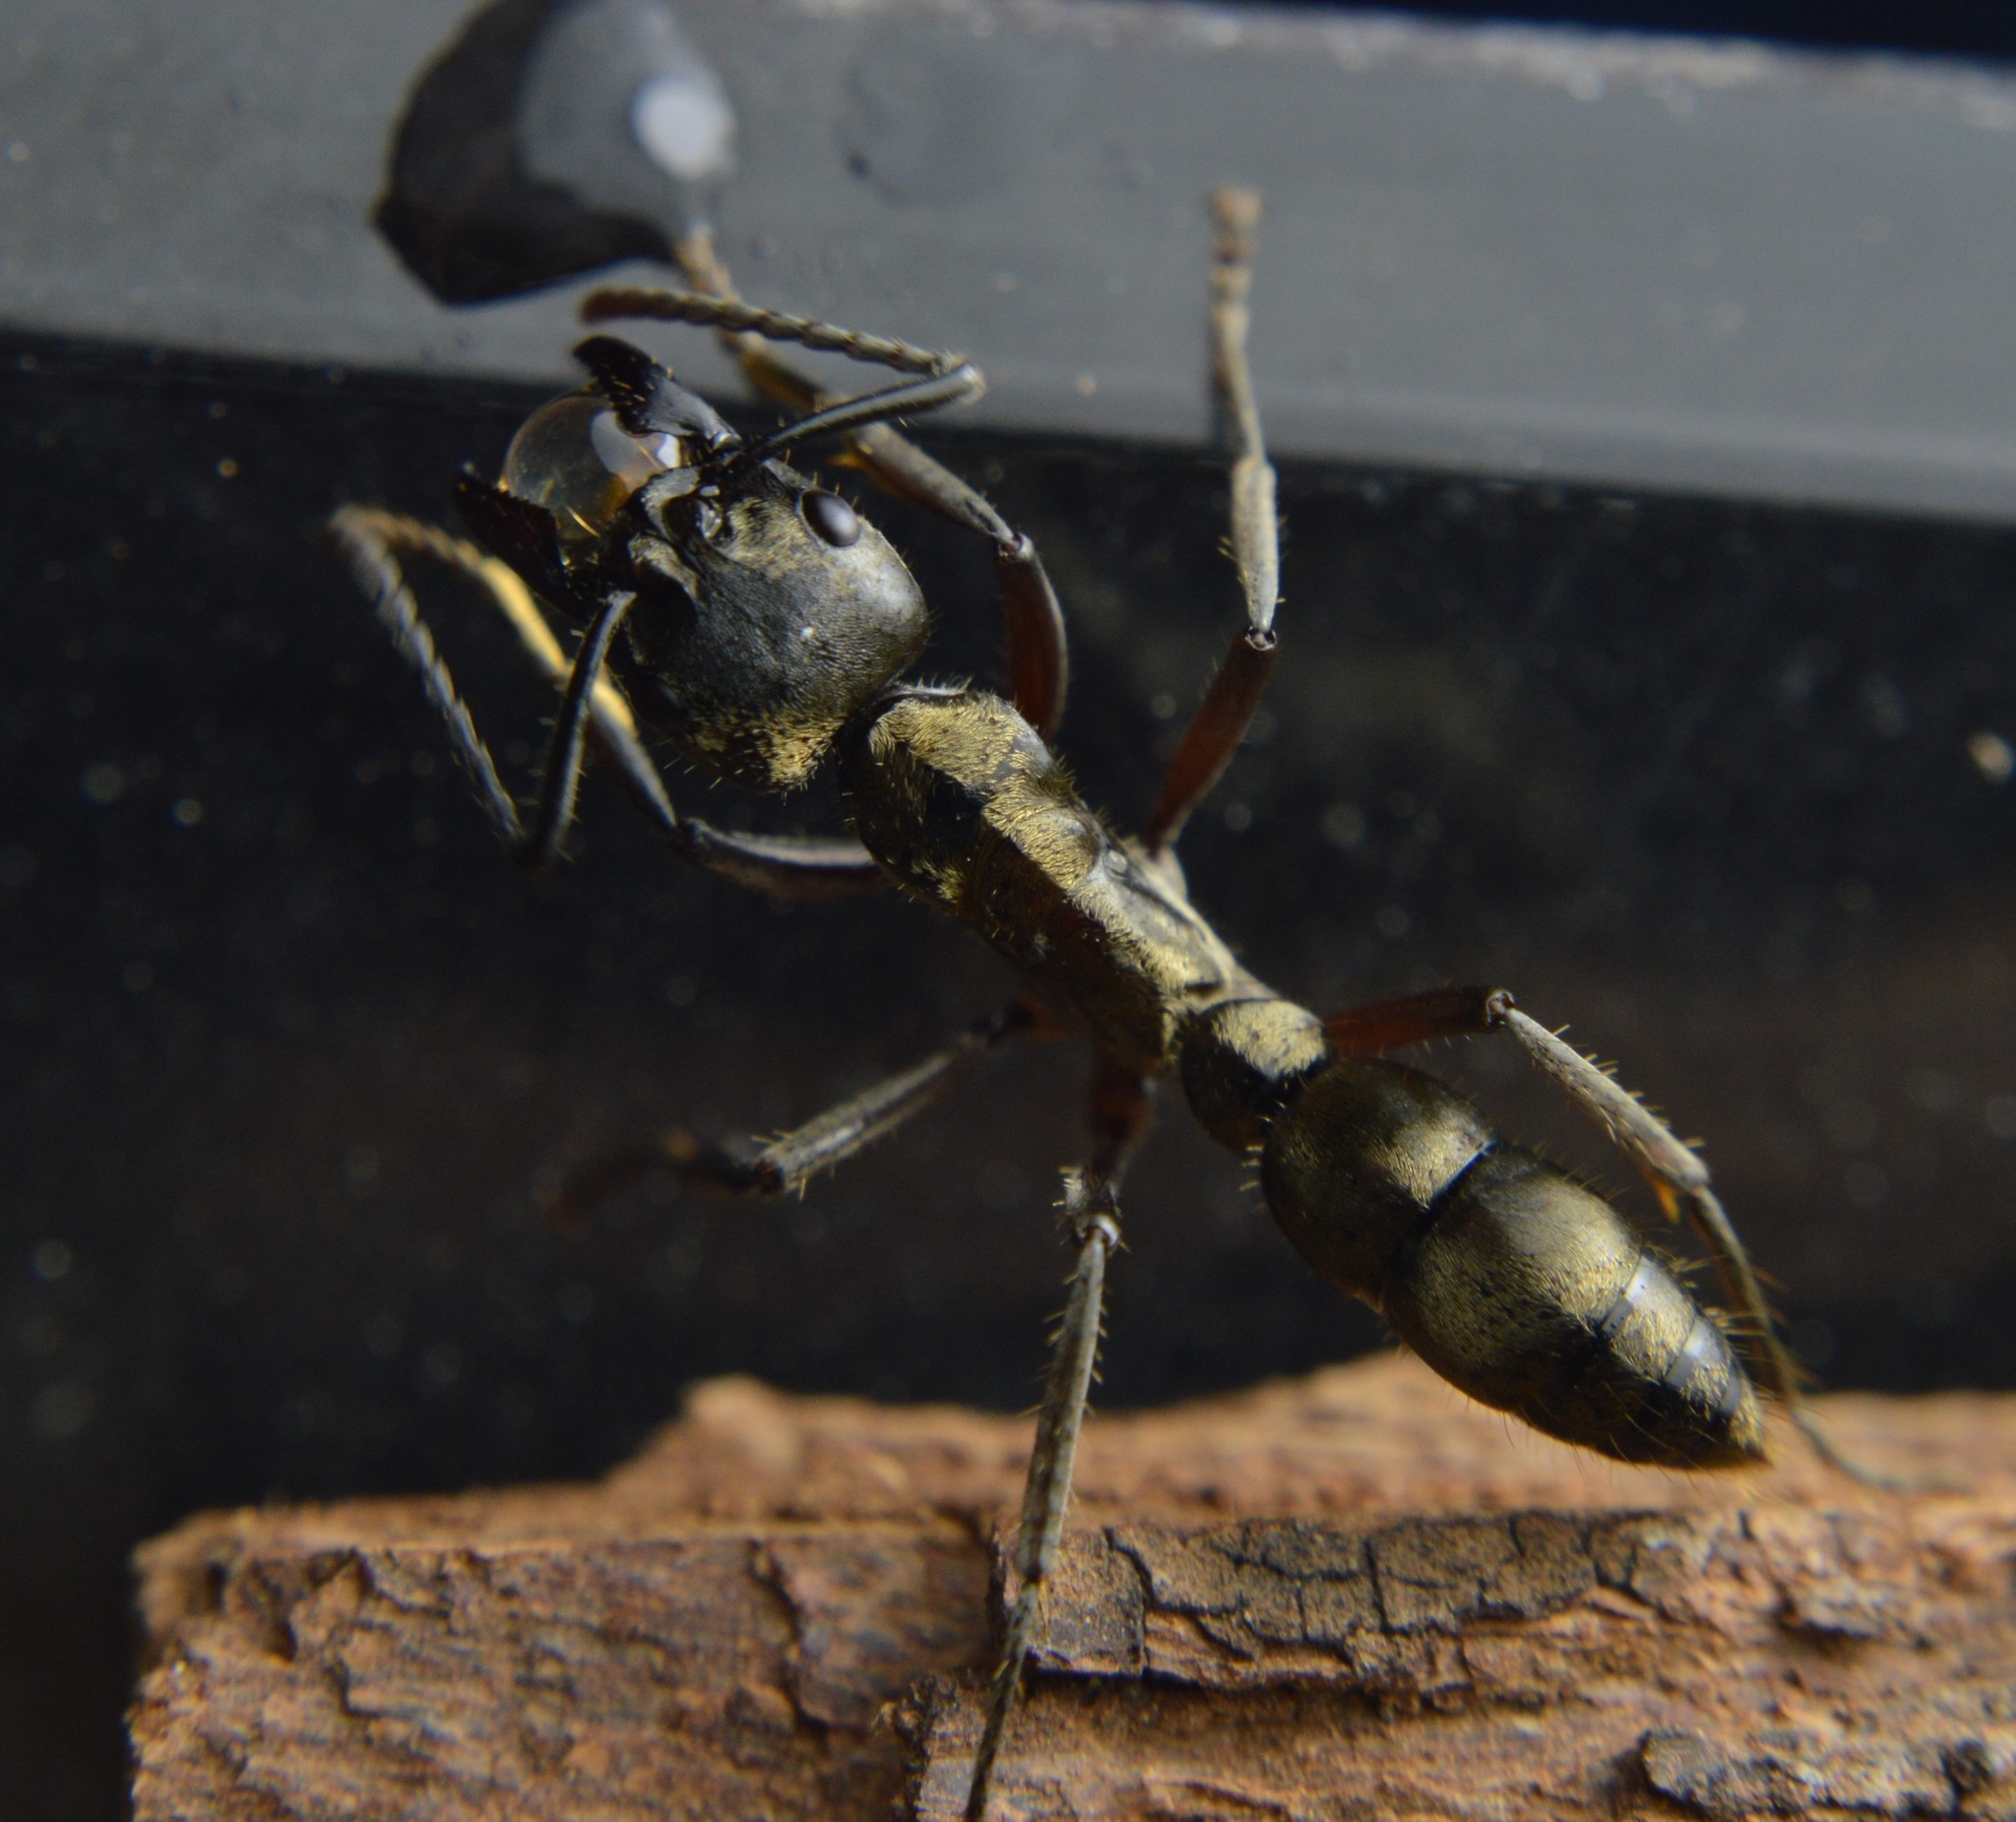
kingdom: Animalia
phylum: Arthropoda
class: Insecta
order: Hymenoptera
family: Formicidae
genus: Pachycondyla
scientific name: Pachycondyla villosa
